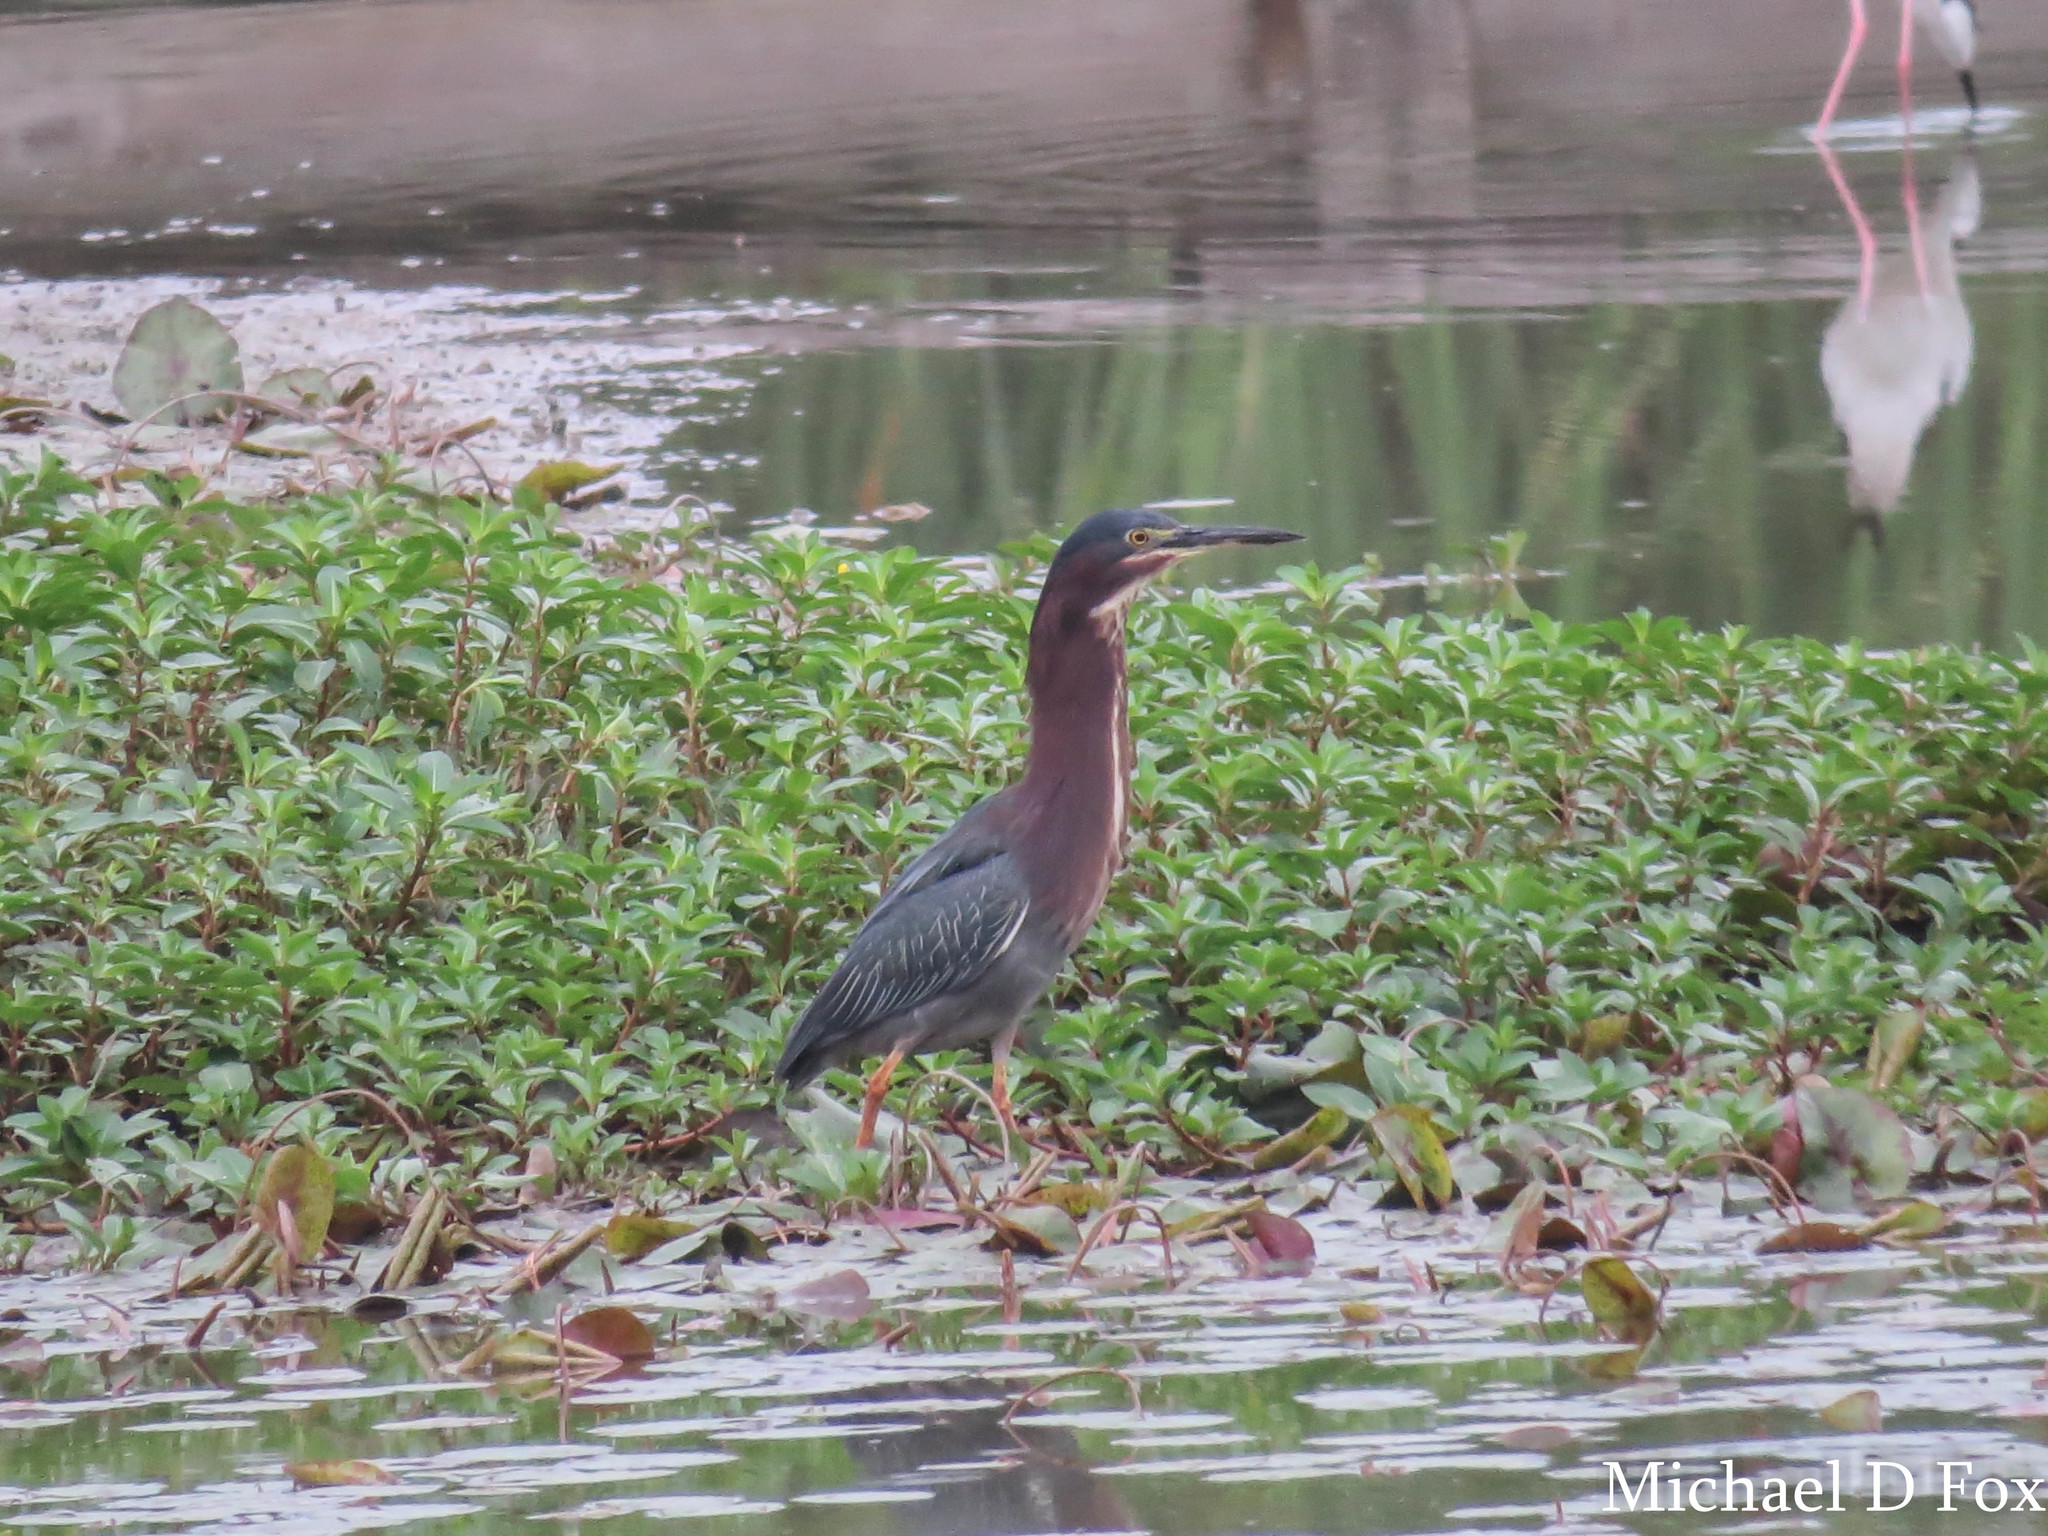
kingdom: Animalia
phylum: Chordata
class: Aves
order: Pelecaniformes
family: Ardeidae
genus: Butorides
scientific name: Butorides virescens
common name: Green heron
